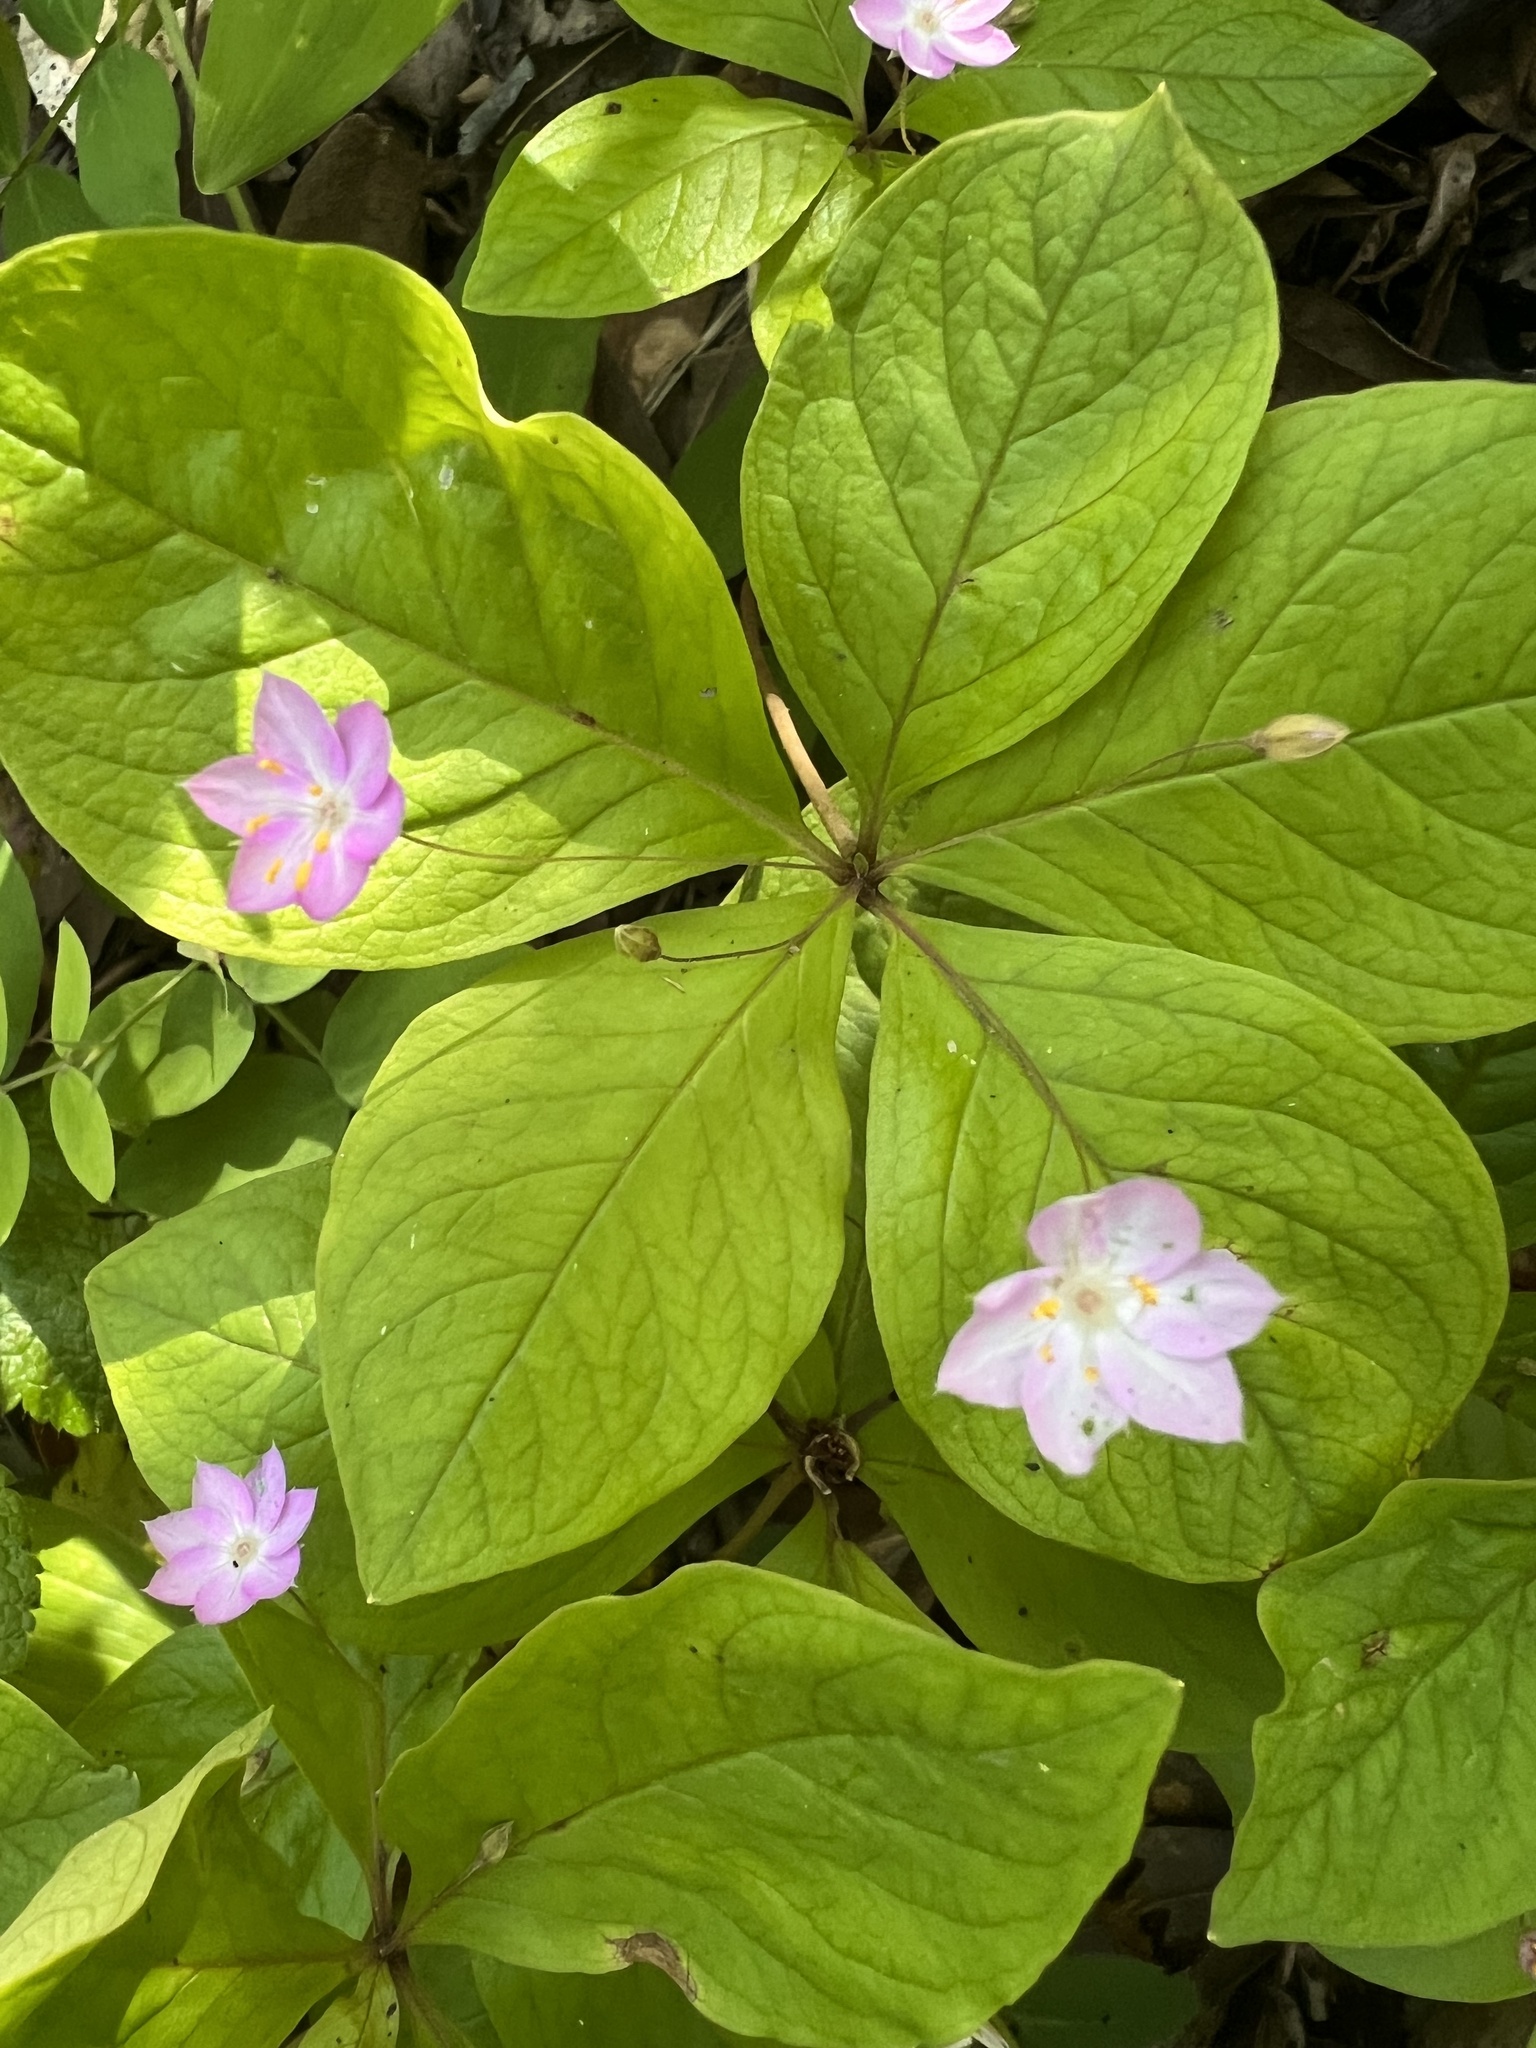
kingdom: Plantae
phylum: Tracheophyta
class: Magnoliopsida
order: Ericales
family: Primulaceae
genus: Lysimachia
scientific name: Lysimachia latifolia
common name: Pacific starflower
